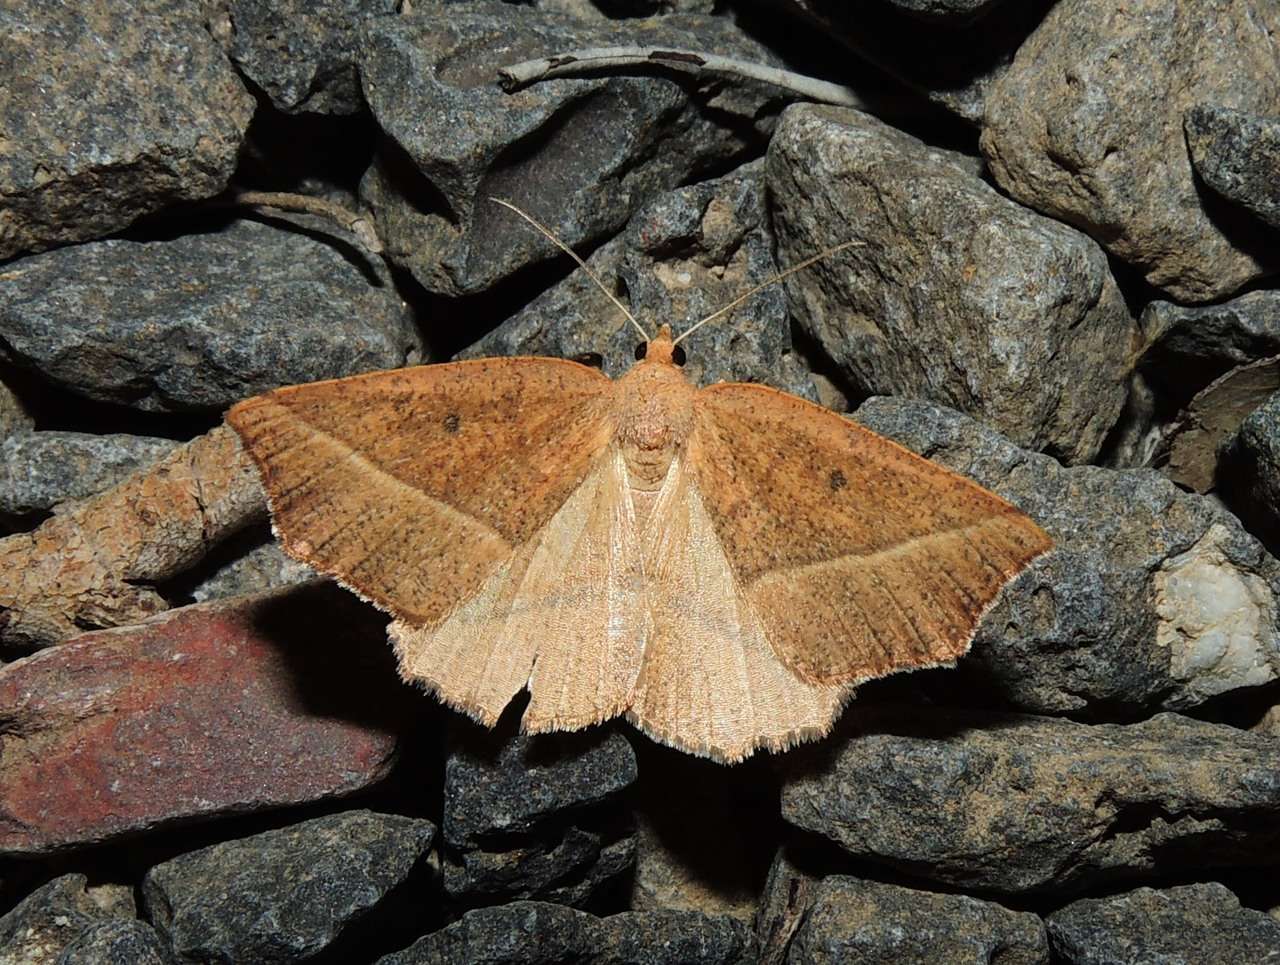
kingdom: Animalia
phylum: Arthropoda
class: Insecta
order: Lepidoptera
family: Geometridae
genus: Microsema
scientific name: Microsema
